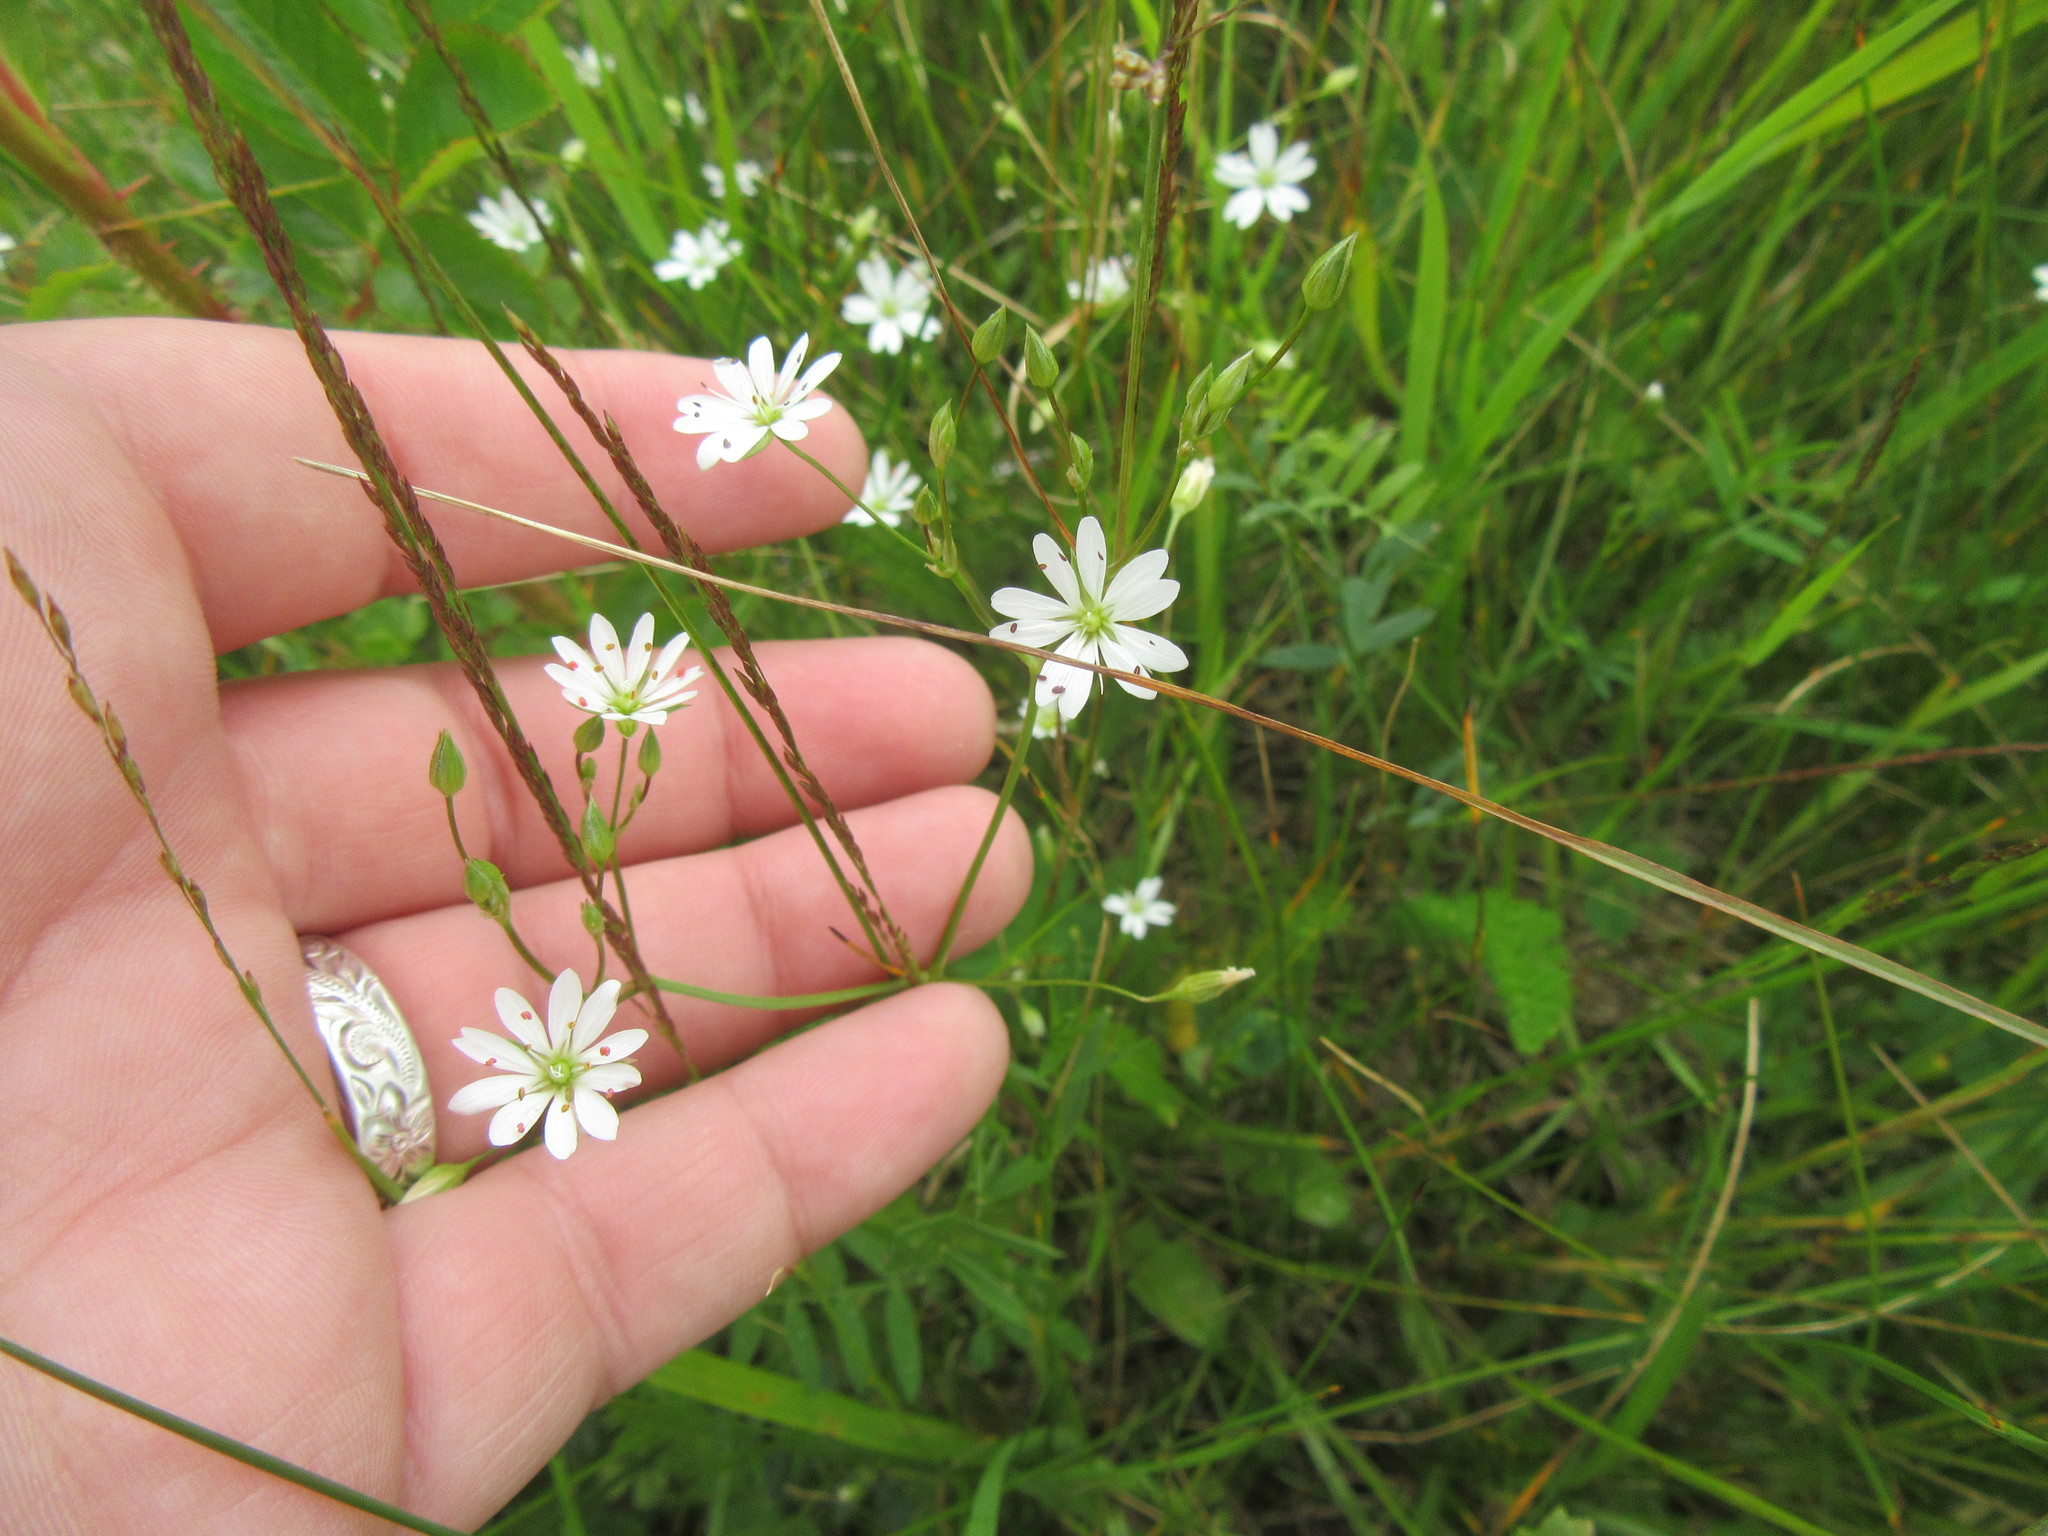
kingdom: Plantae
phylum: Tracheophyta
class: Magnoliopsida
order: Caryophyllales
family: Caryophyllaceae
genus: Stellaria
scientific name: Stellaria graminea
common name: Grass-like starwort
